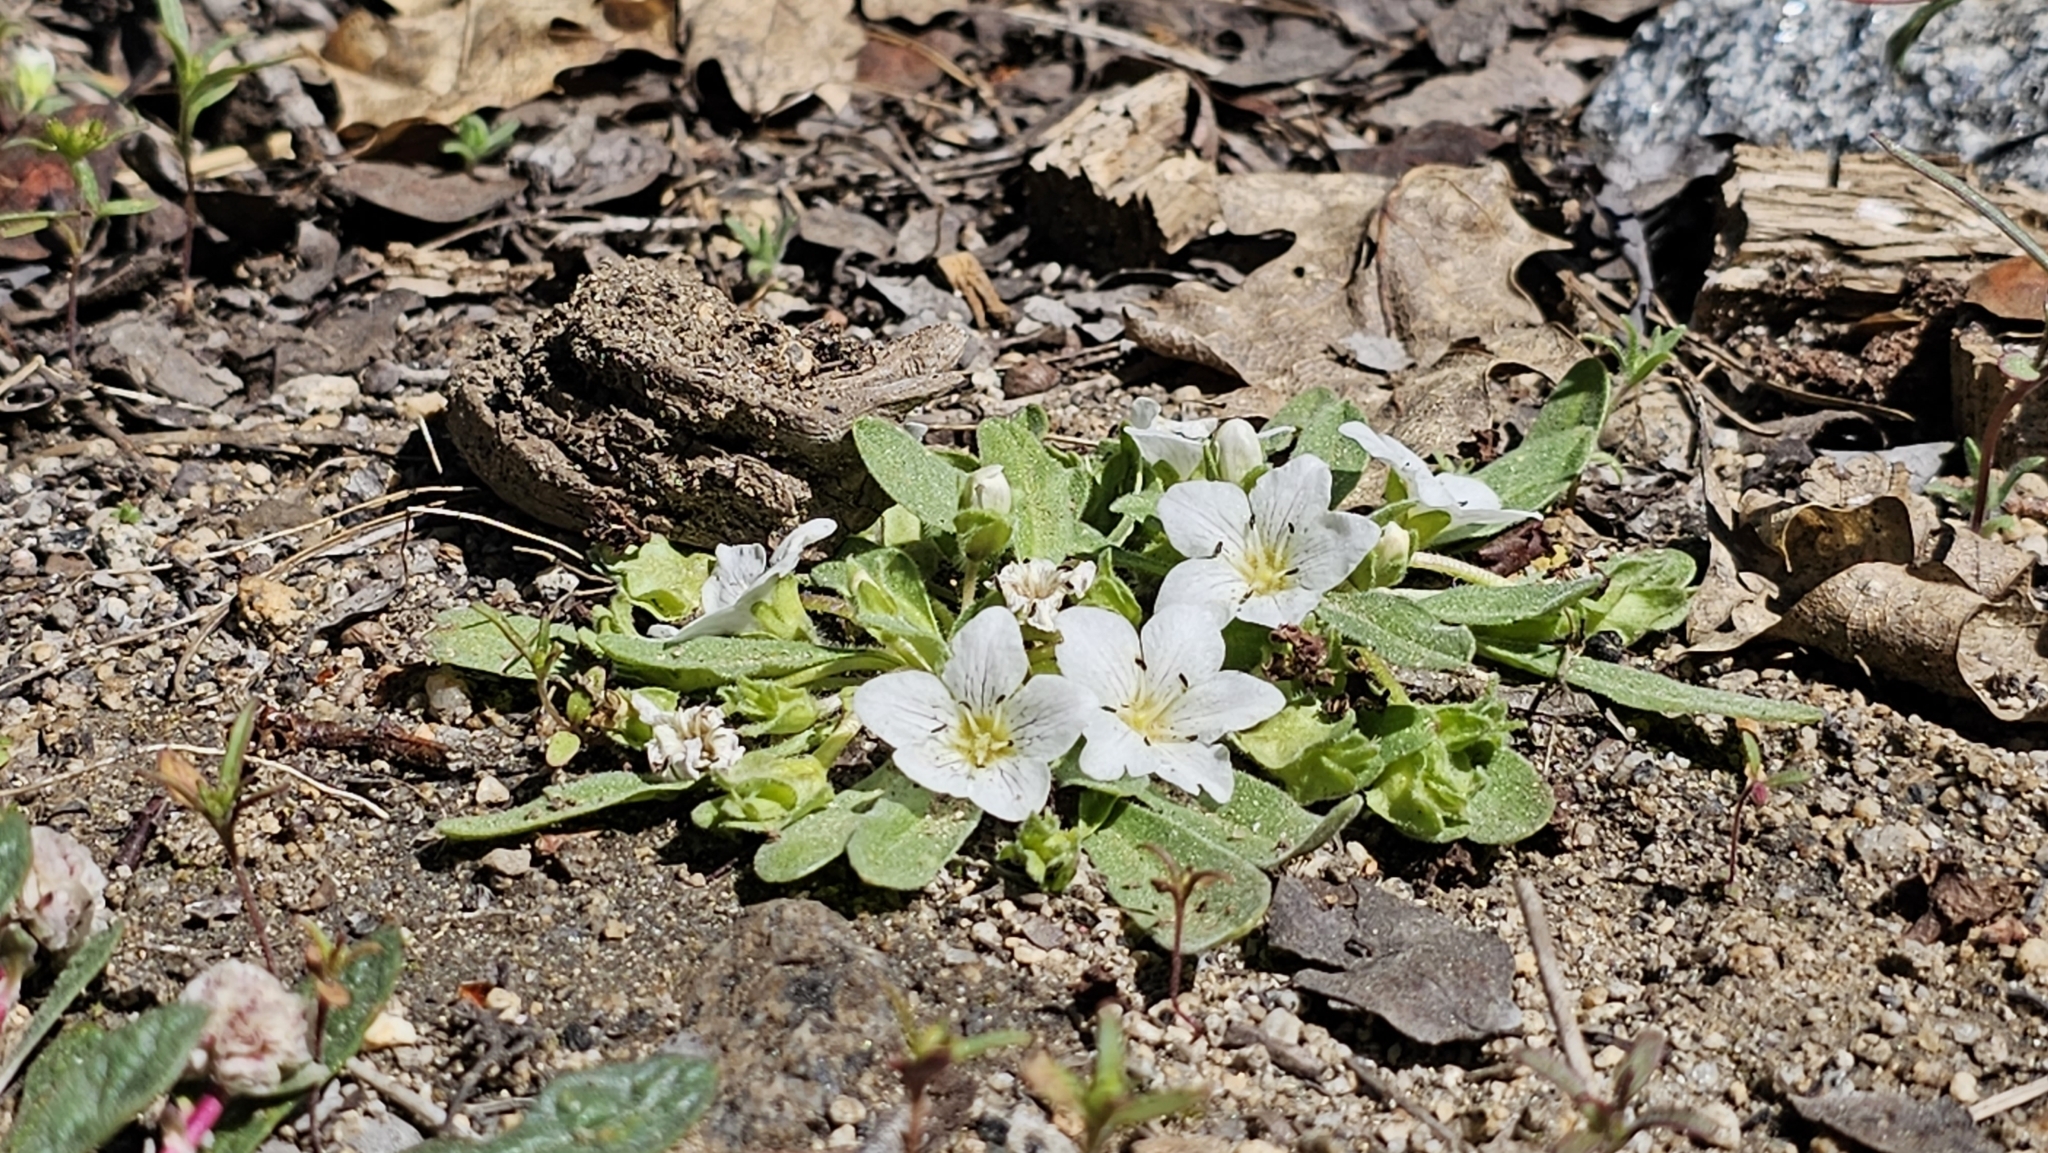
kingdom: Plantae
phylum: Tracheophyta
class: Magnoliopsida
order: Boraginales
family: Hydrophyllaceae
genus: Hesperochiron
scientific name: Hesperochiron pumilus
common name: Dwarf hesperochiron
